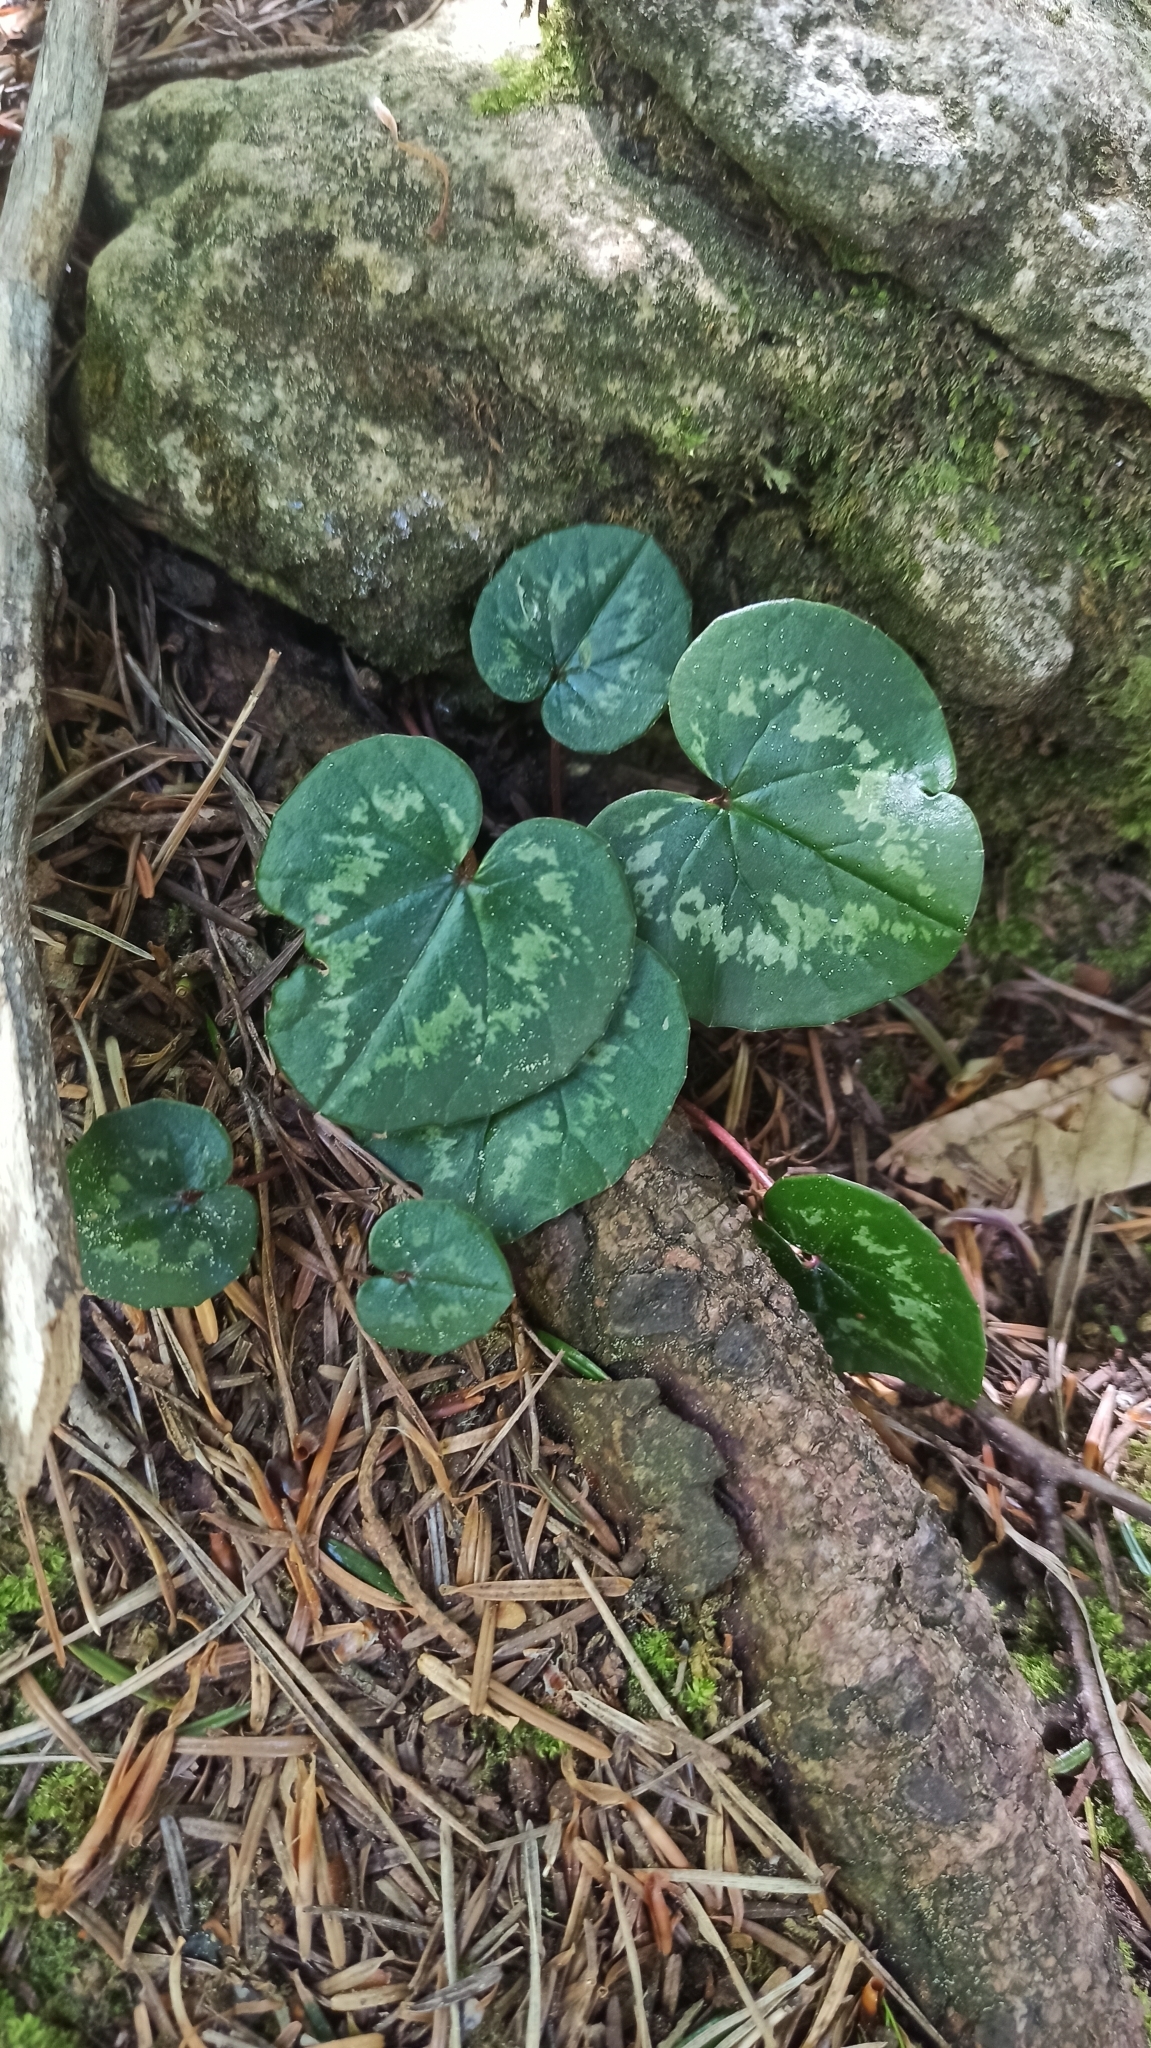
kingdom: Plantae
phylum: Tracheophyta
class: Magnoliopsida
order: Ericales
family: Primulaceae
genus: Cyclamen
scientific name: Cyclamen coum
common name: Eastern sowbread
